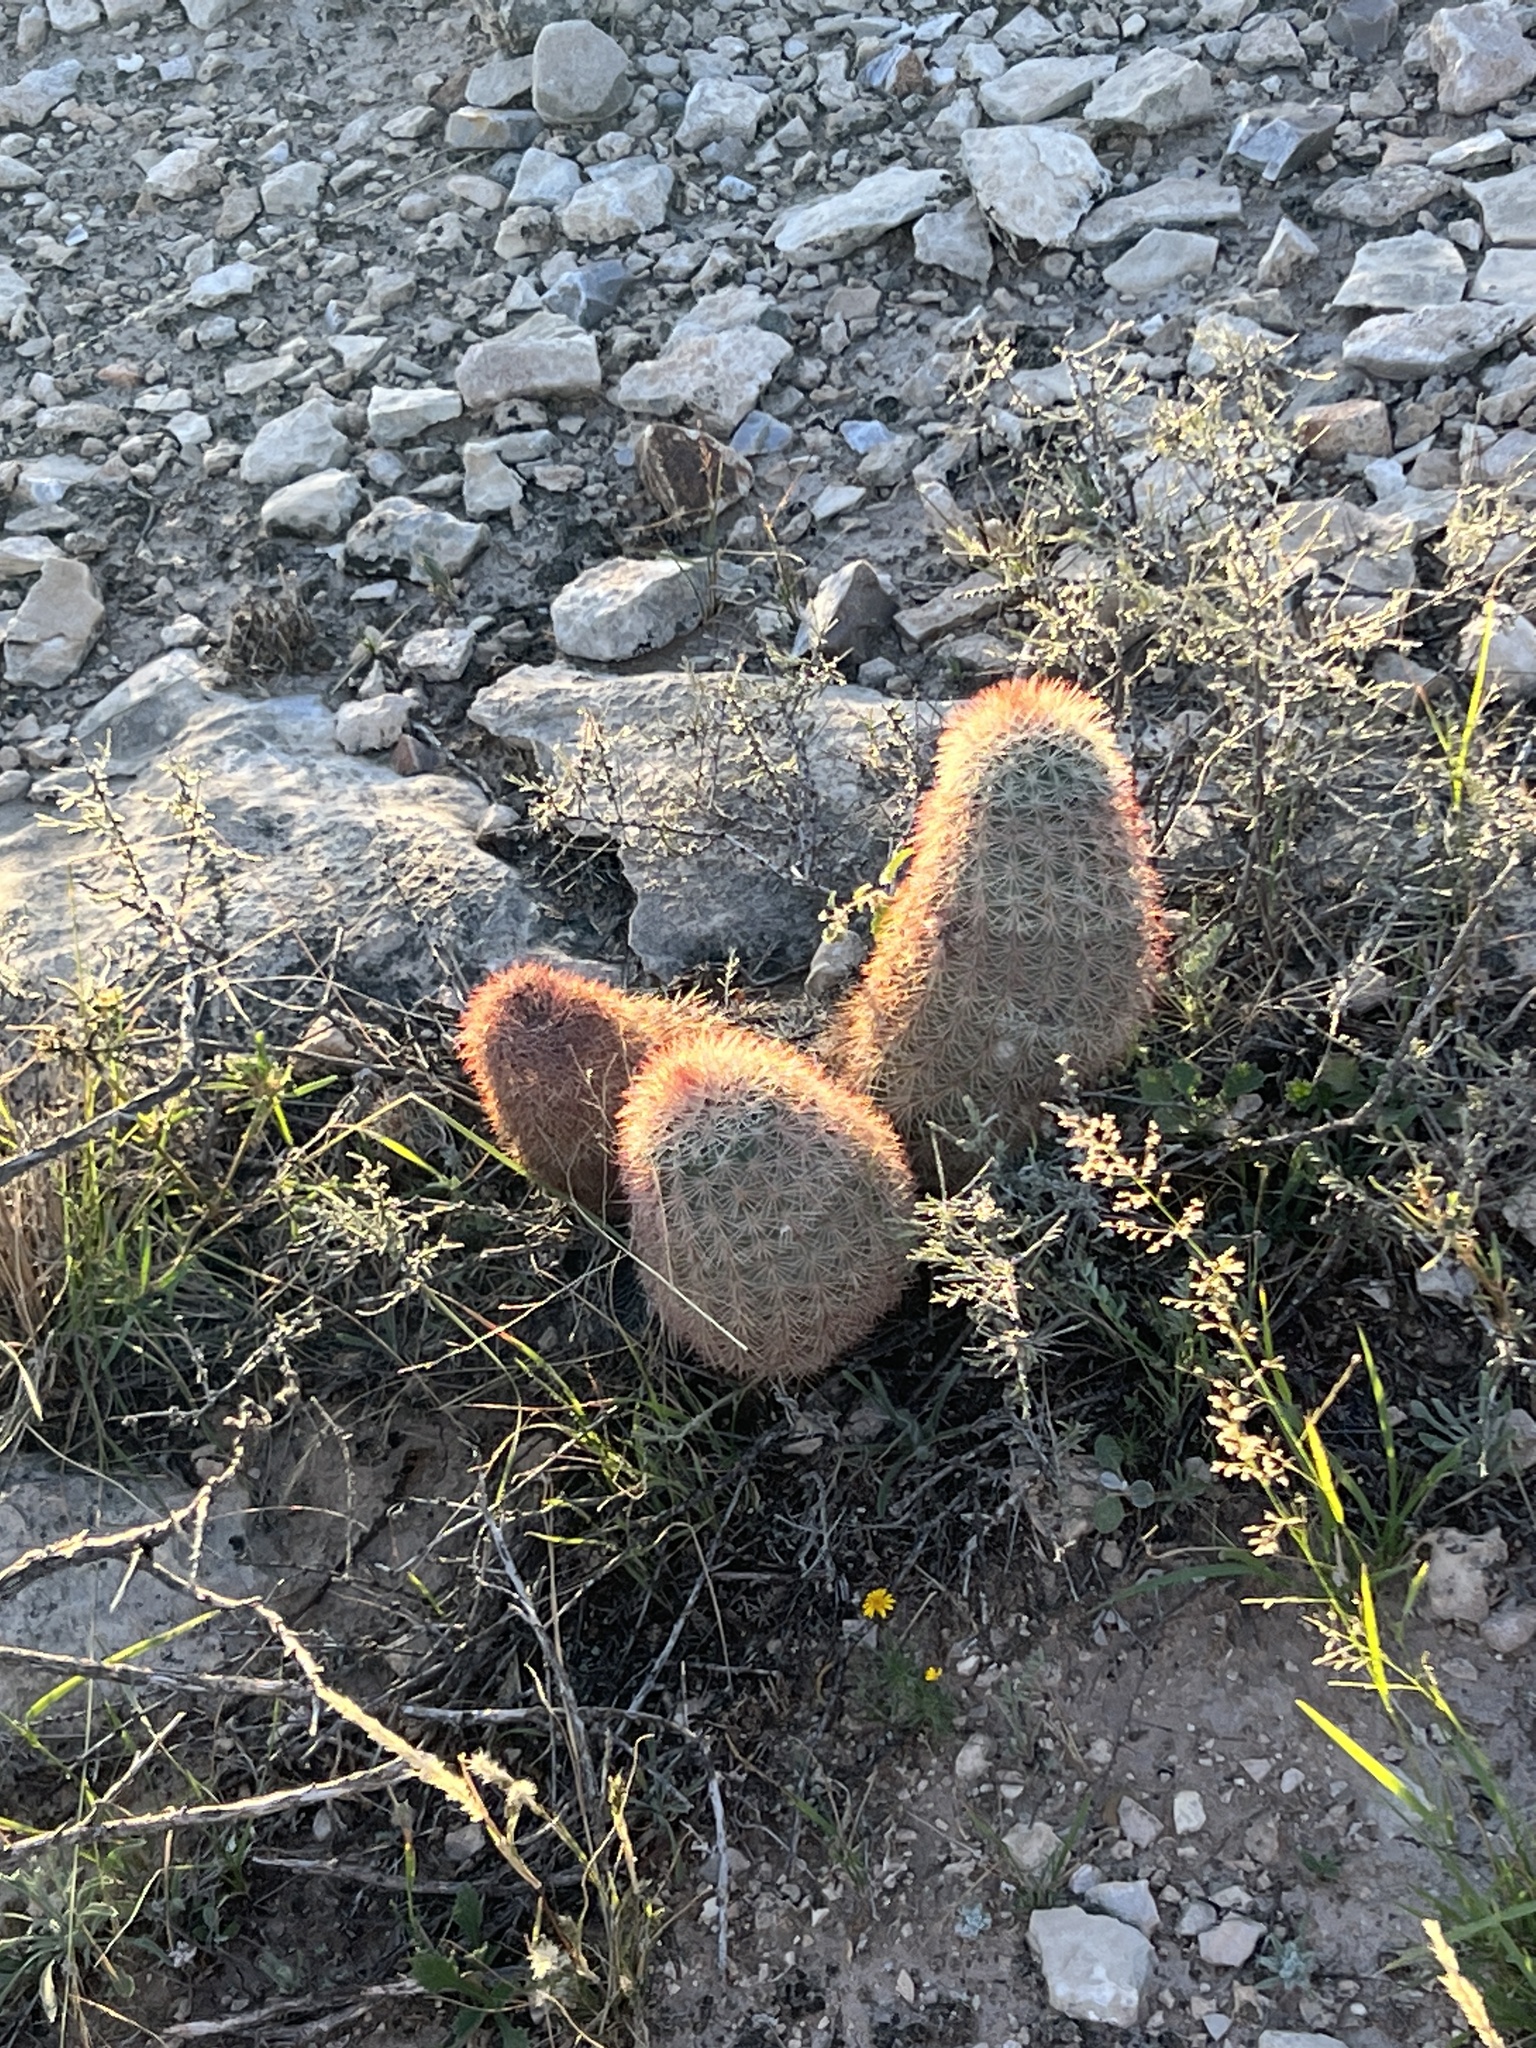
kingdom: Plantae
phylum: Tracheophyta
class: Magnoliopsida
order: Caryophyllales
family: Cactaceae
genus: Echinocereus
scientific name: Echinocereus dasyacanthus
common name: Spiny hedgehog cactus
